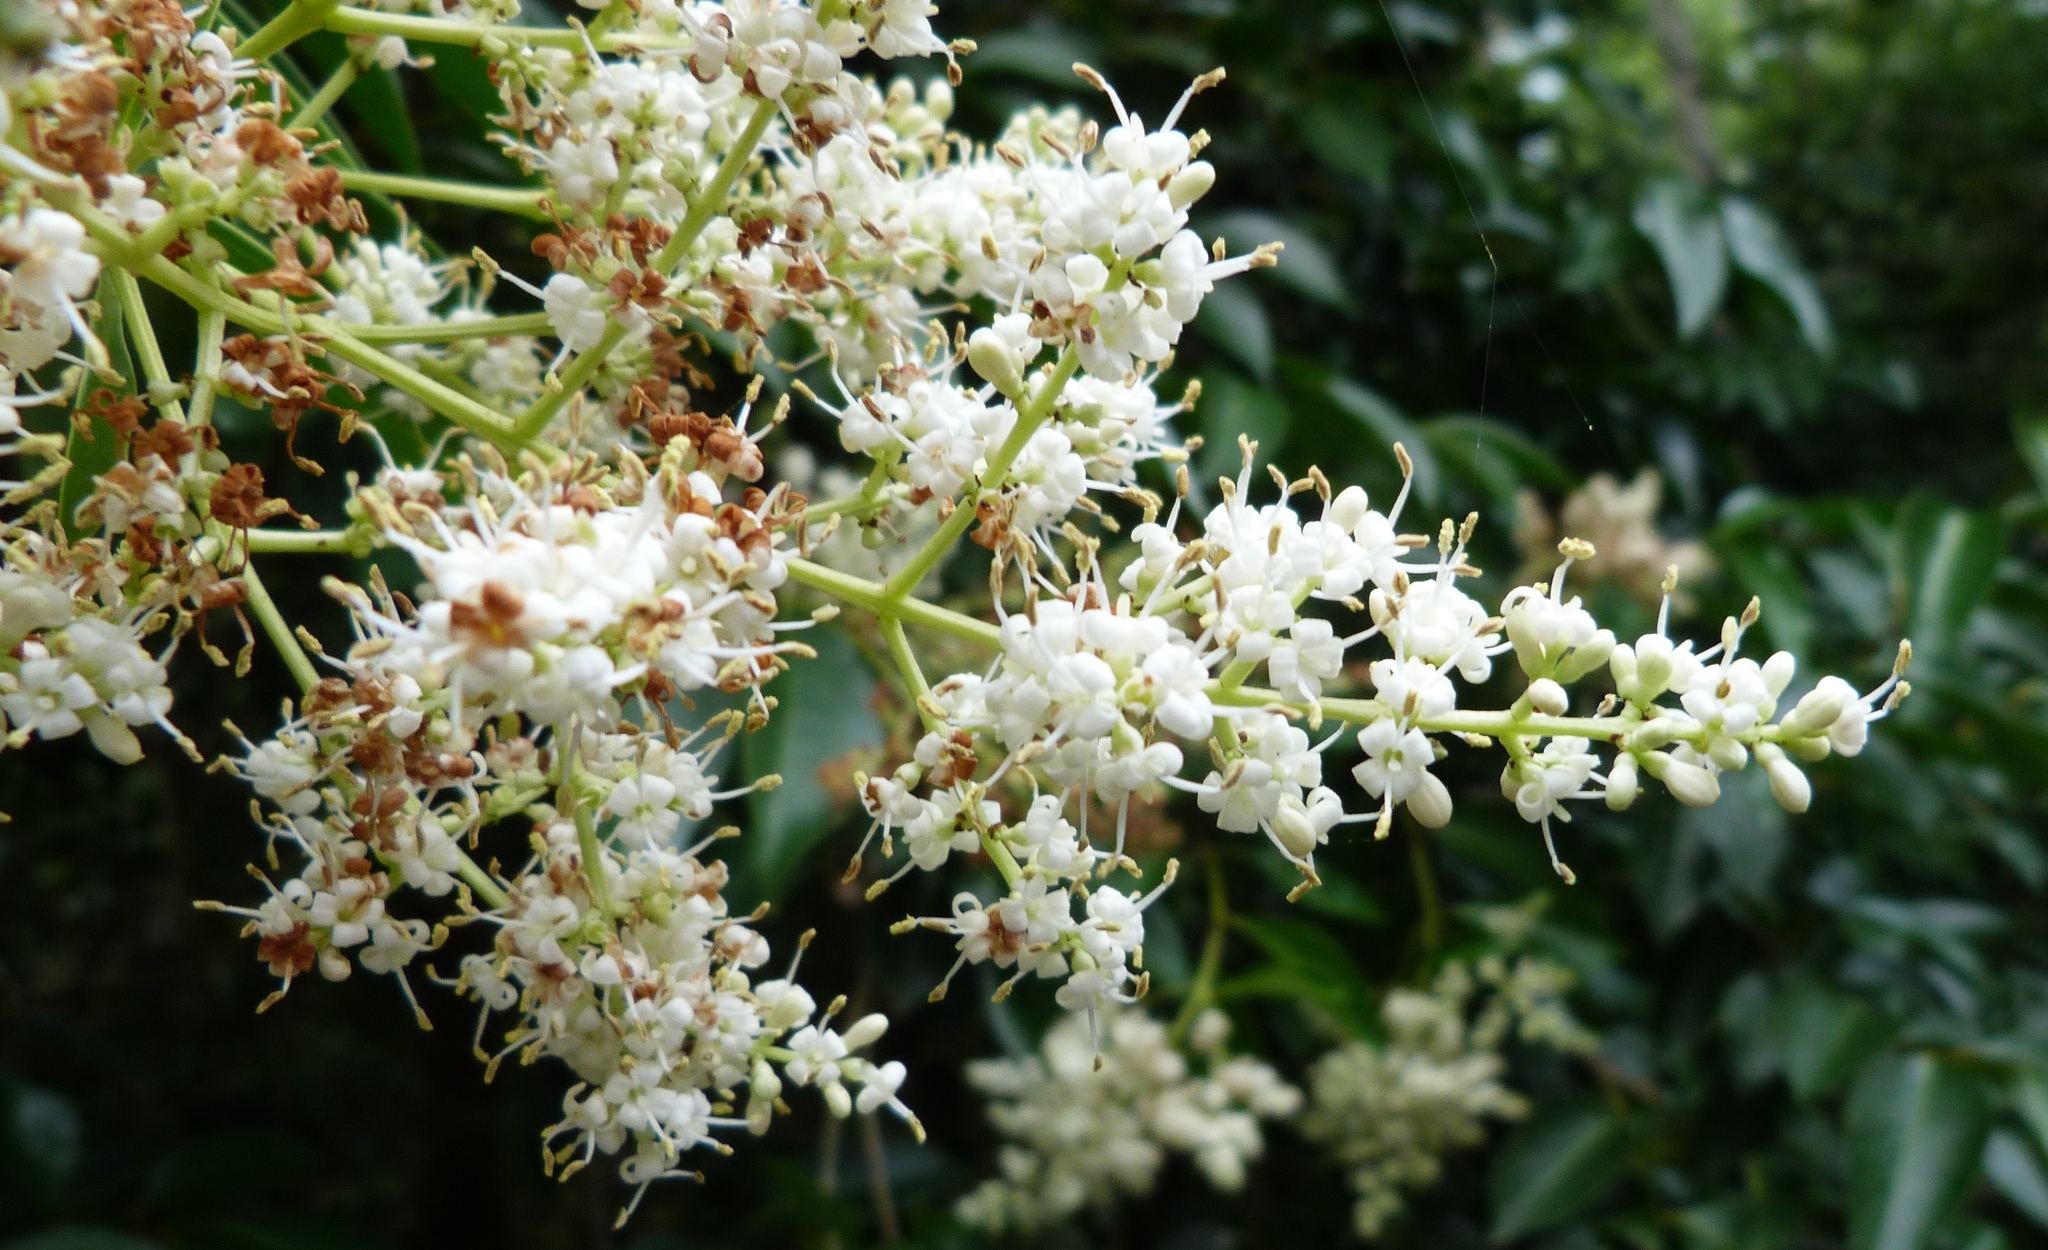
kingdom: Plantae
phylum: Tracheophyta
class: Magnoliopsida
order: Lamiales
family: Oleaceae
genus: Ligustrum
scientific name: Ligustrum lucidum
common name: Glossy privet
